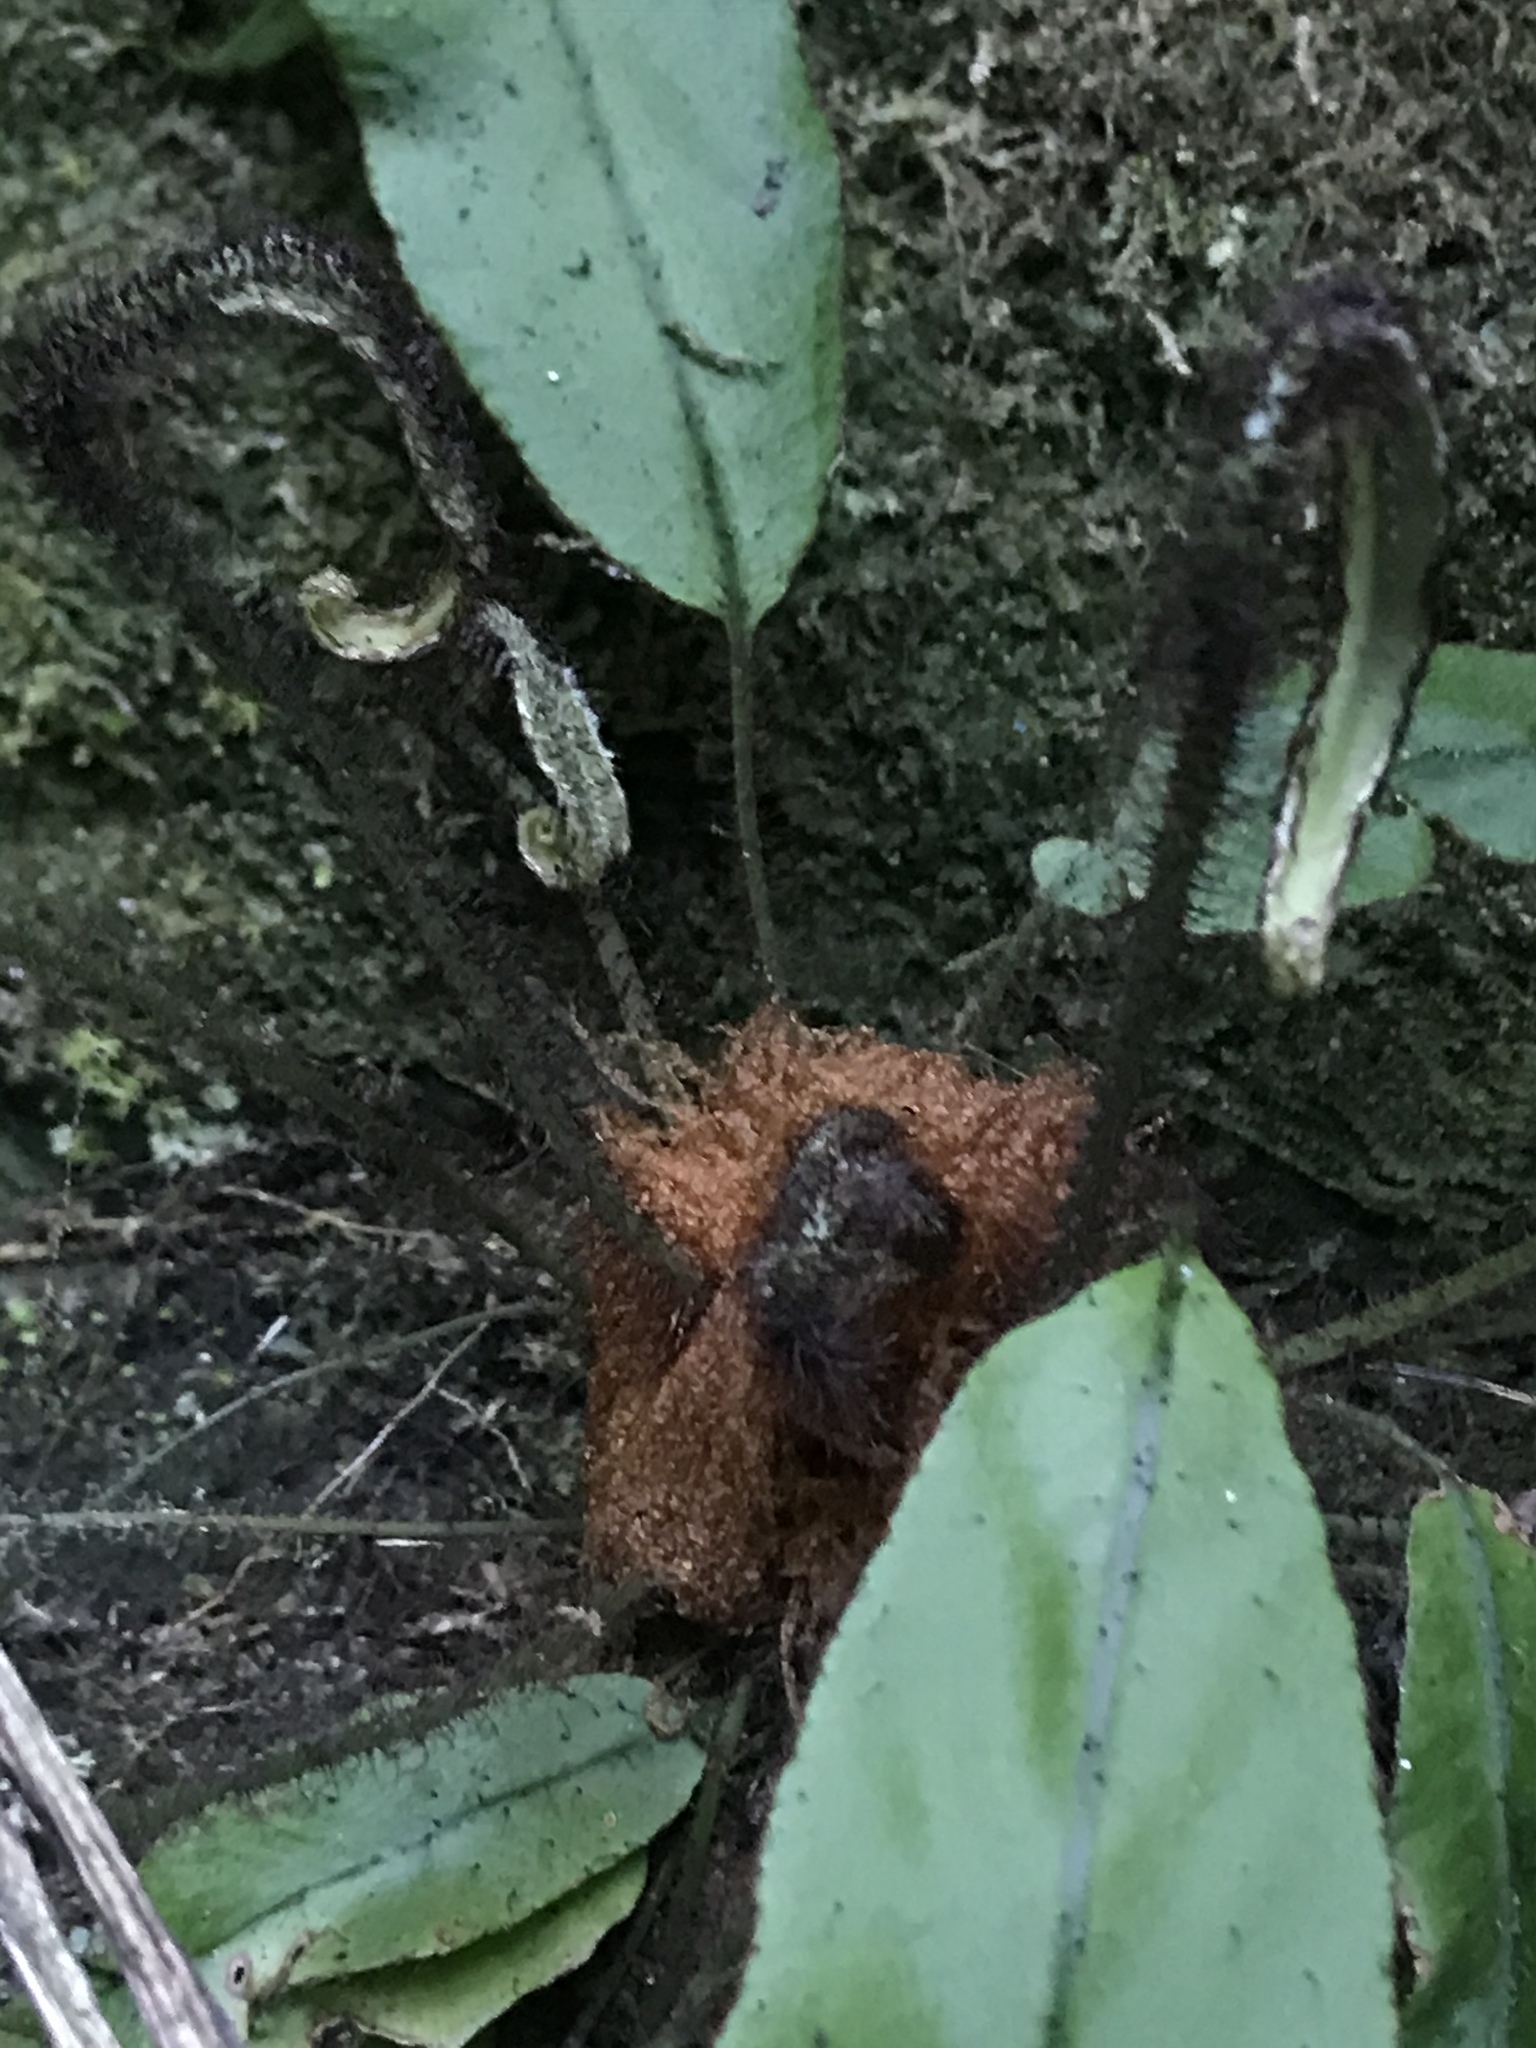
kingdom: Plantae
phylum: Tracheophyta
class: Polypodiopsida
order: Polypodiales
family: Dryopteridaceae
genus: Elaphoglossum
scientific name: Elaphoglossum barbatum
